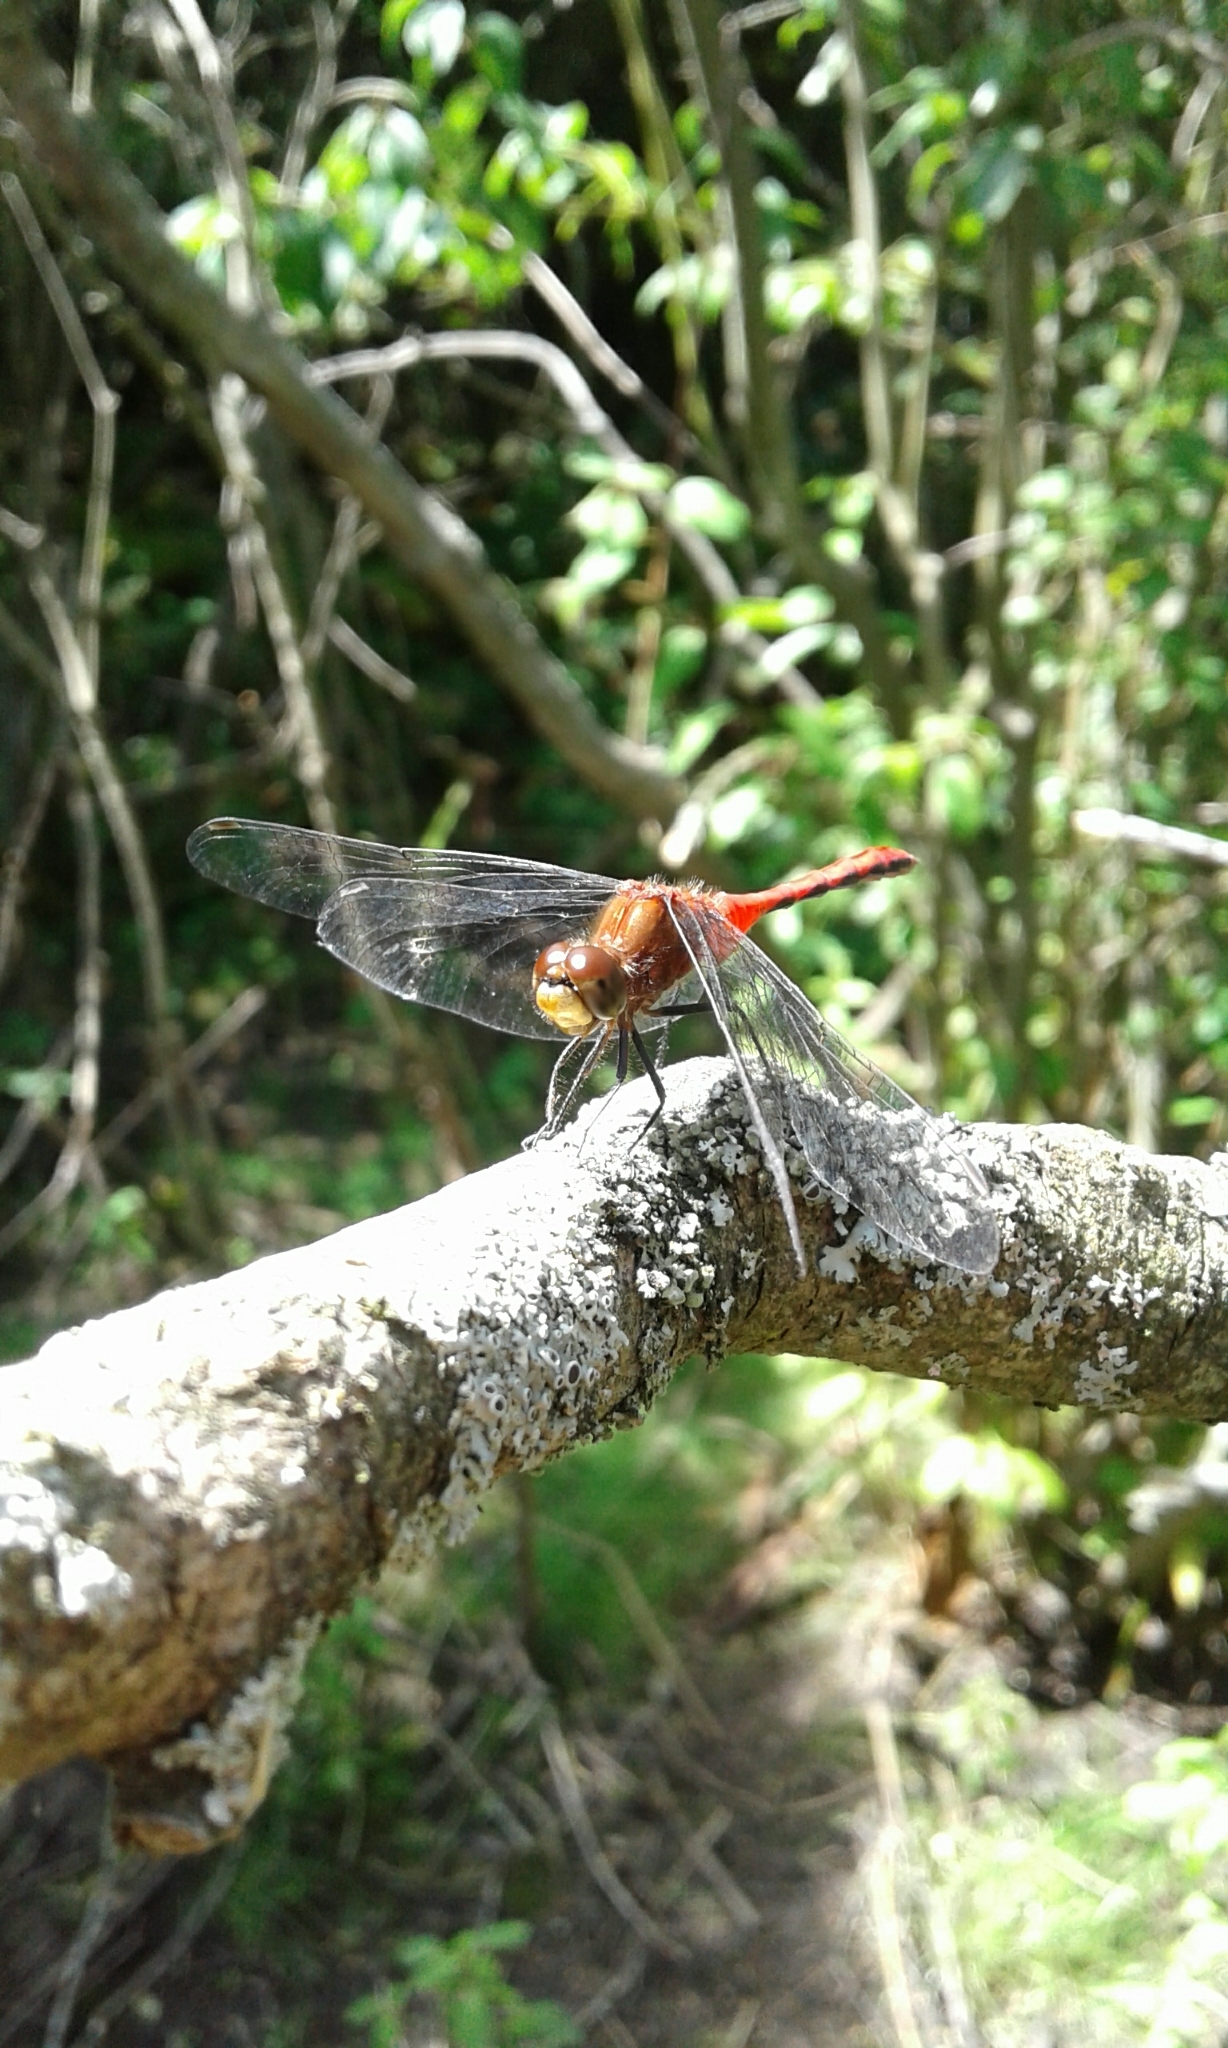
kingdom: Animalia
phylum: Arthropoda
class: Insecta
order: Odonata
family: Libellulidae
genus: Sympetrum
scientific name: Sympetrum
